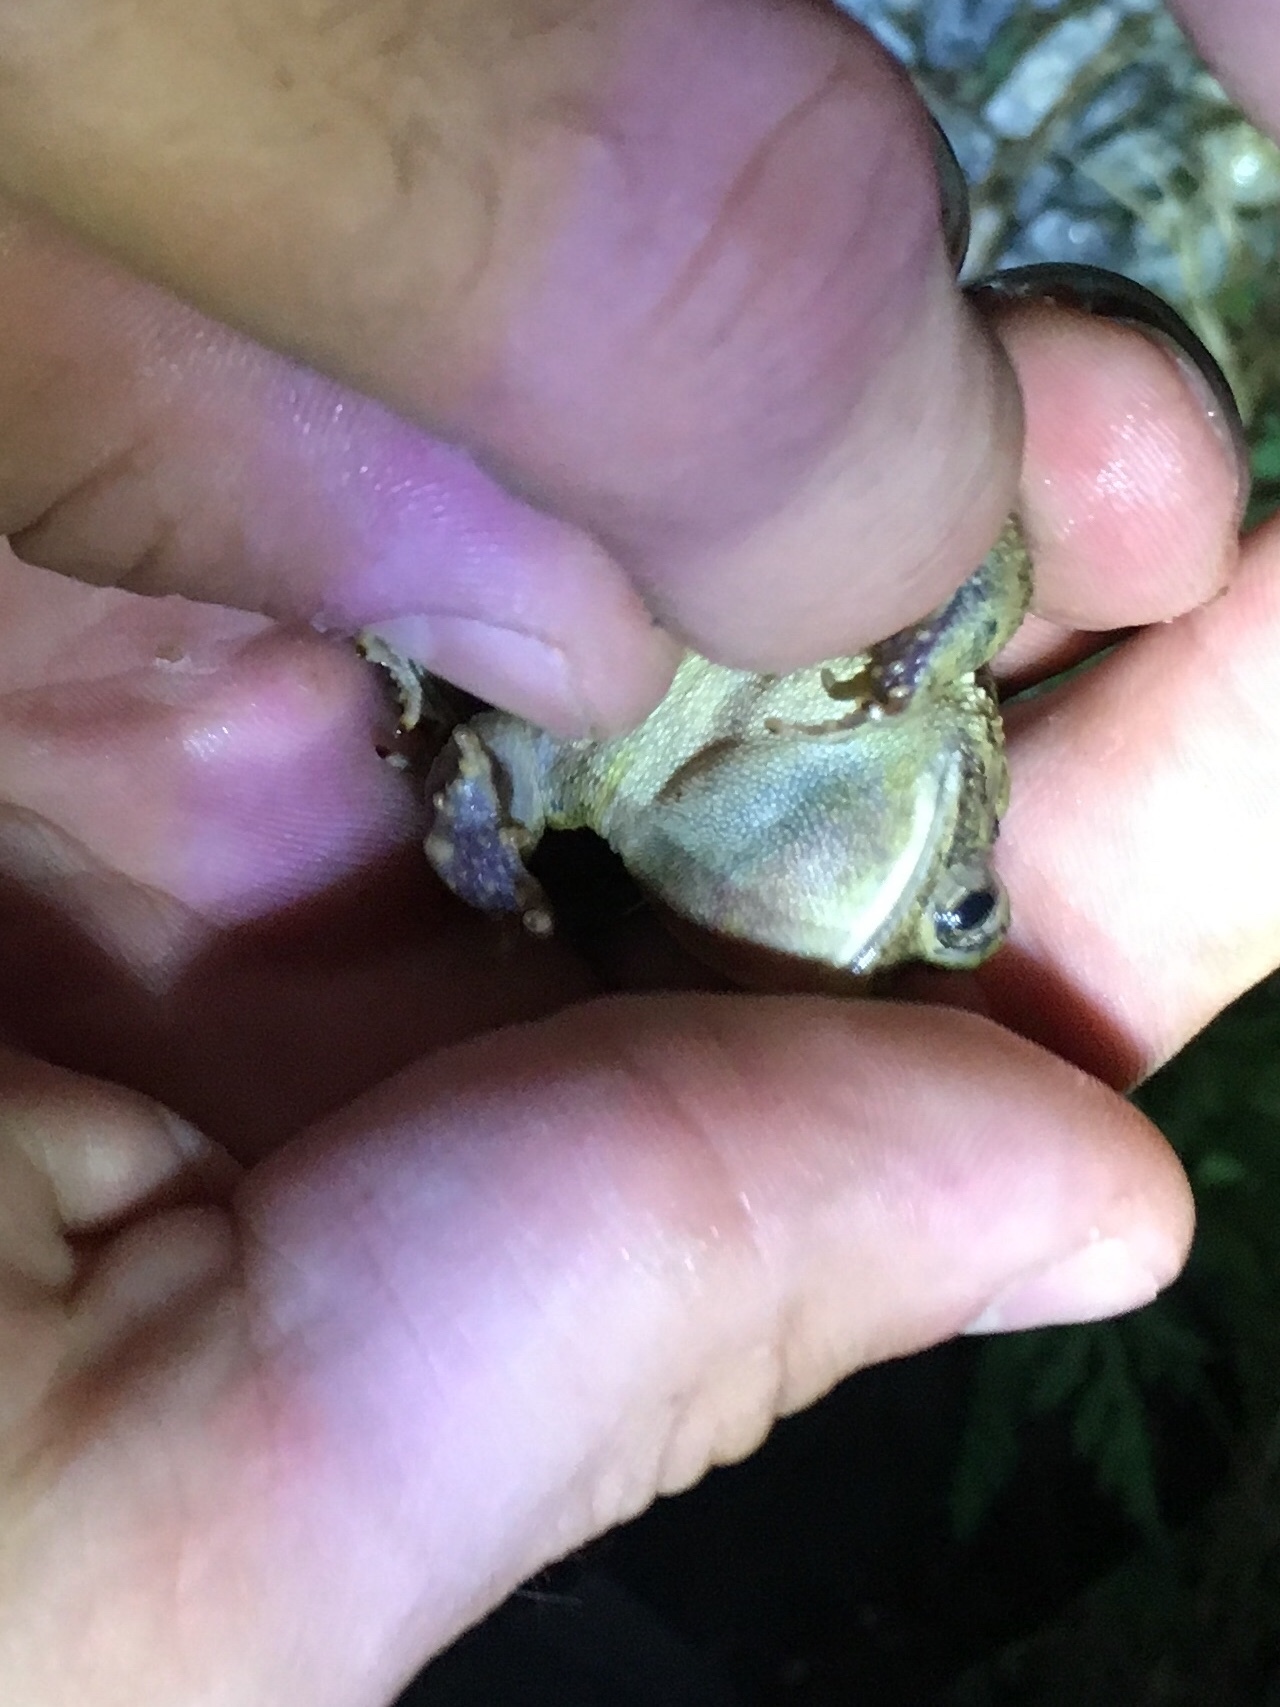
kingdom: Animalia
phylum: Chordata
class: Amphibia
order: Anura
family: Bufonidae
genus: Anaxyrus
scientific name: Anaxyrus terrestris
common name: Southern toad
